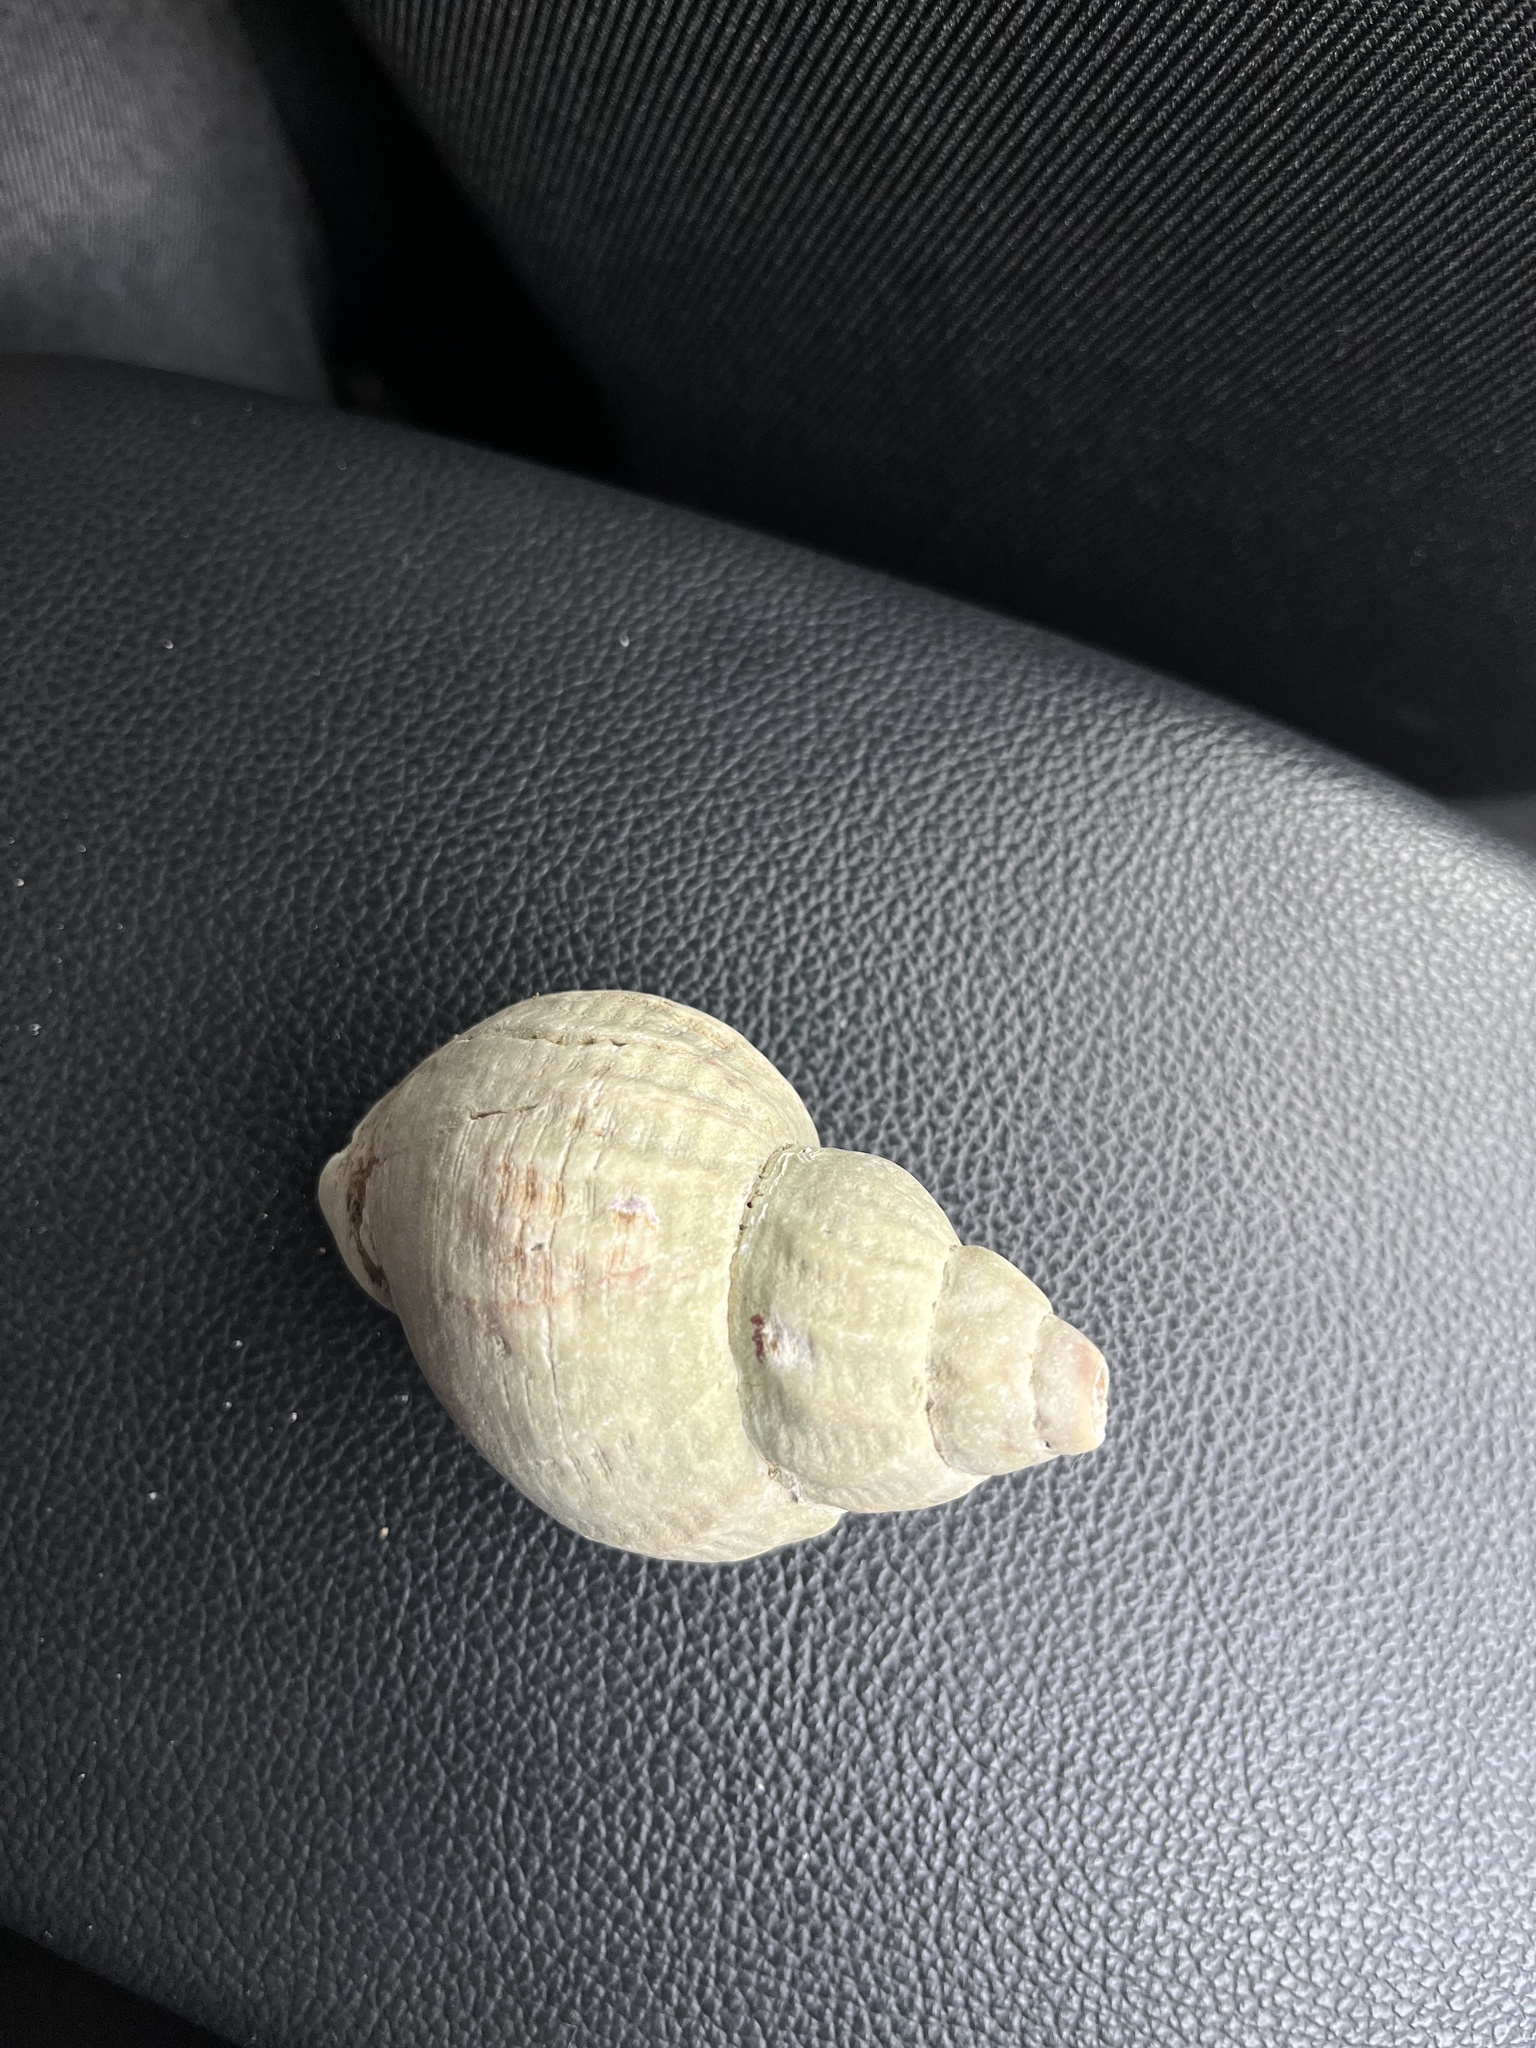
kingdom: Animalia
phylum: Mollusca
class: Gastropoda
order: Neogastropoda
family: Buccinidae
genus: Buccinum
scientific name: Buccinum undatum
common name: Common whelk
